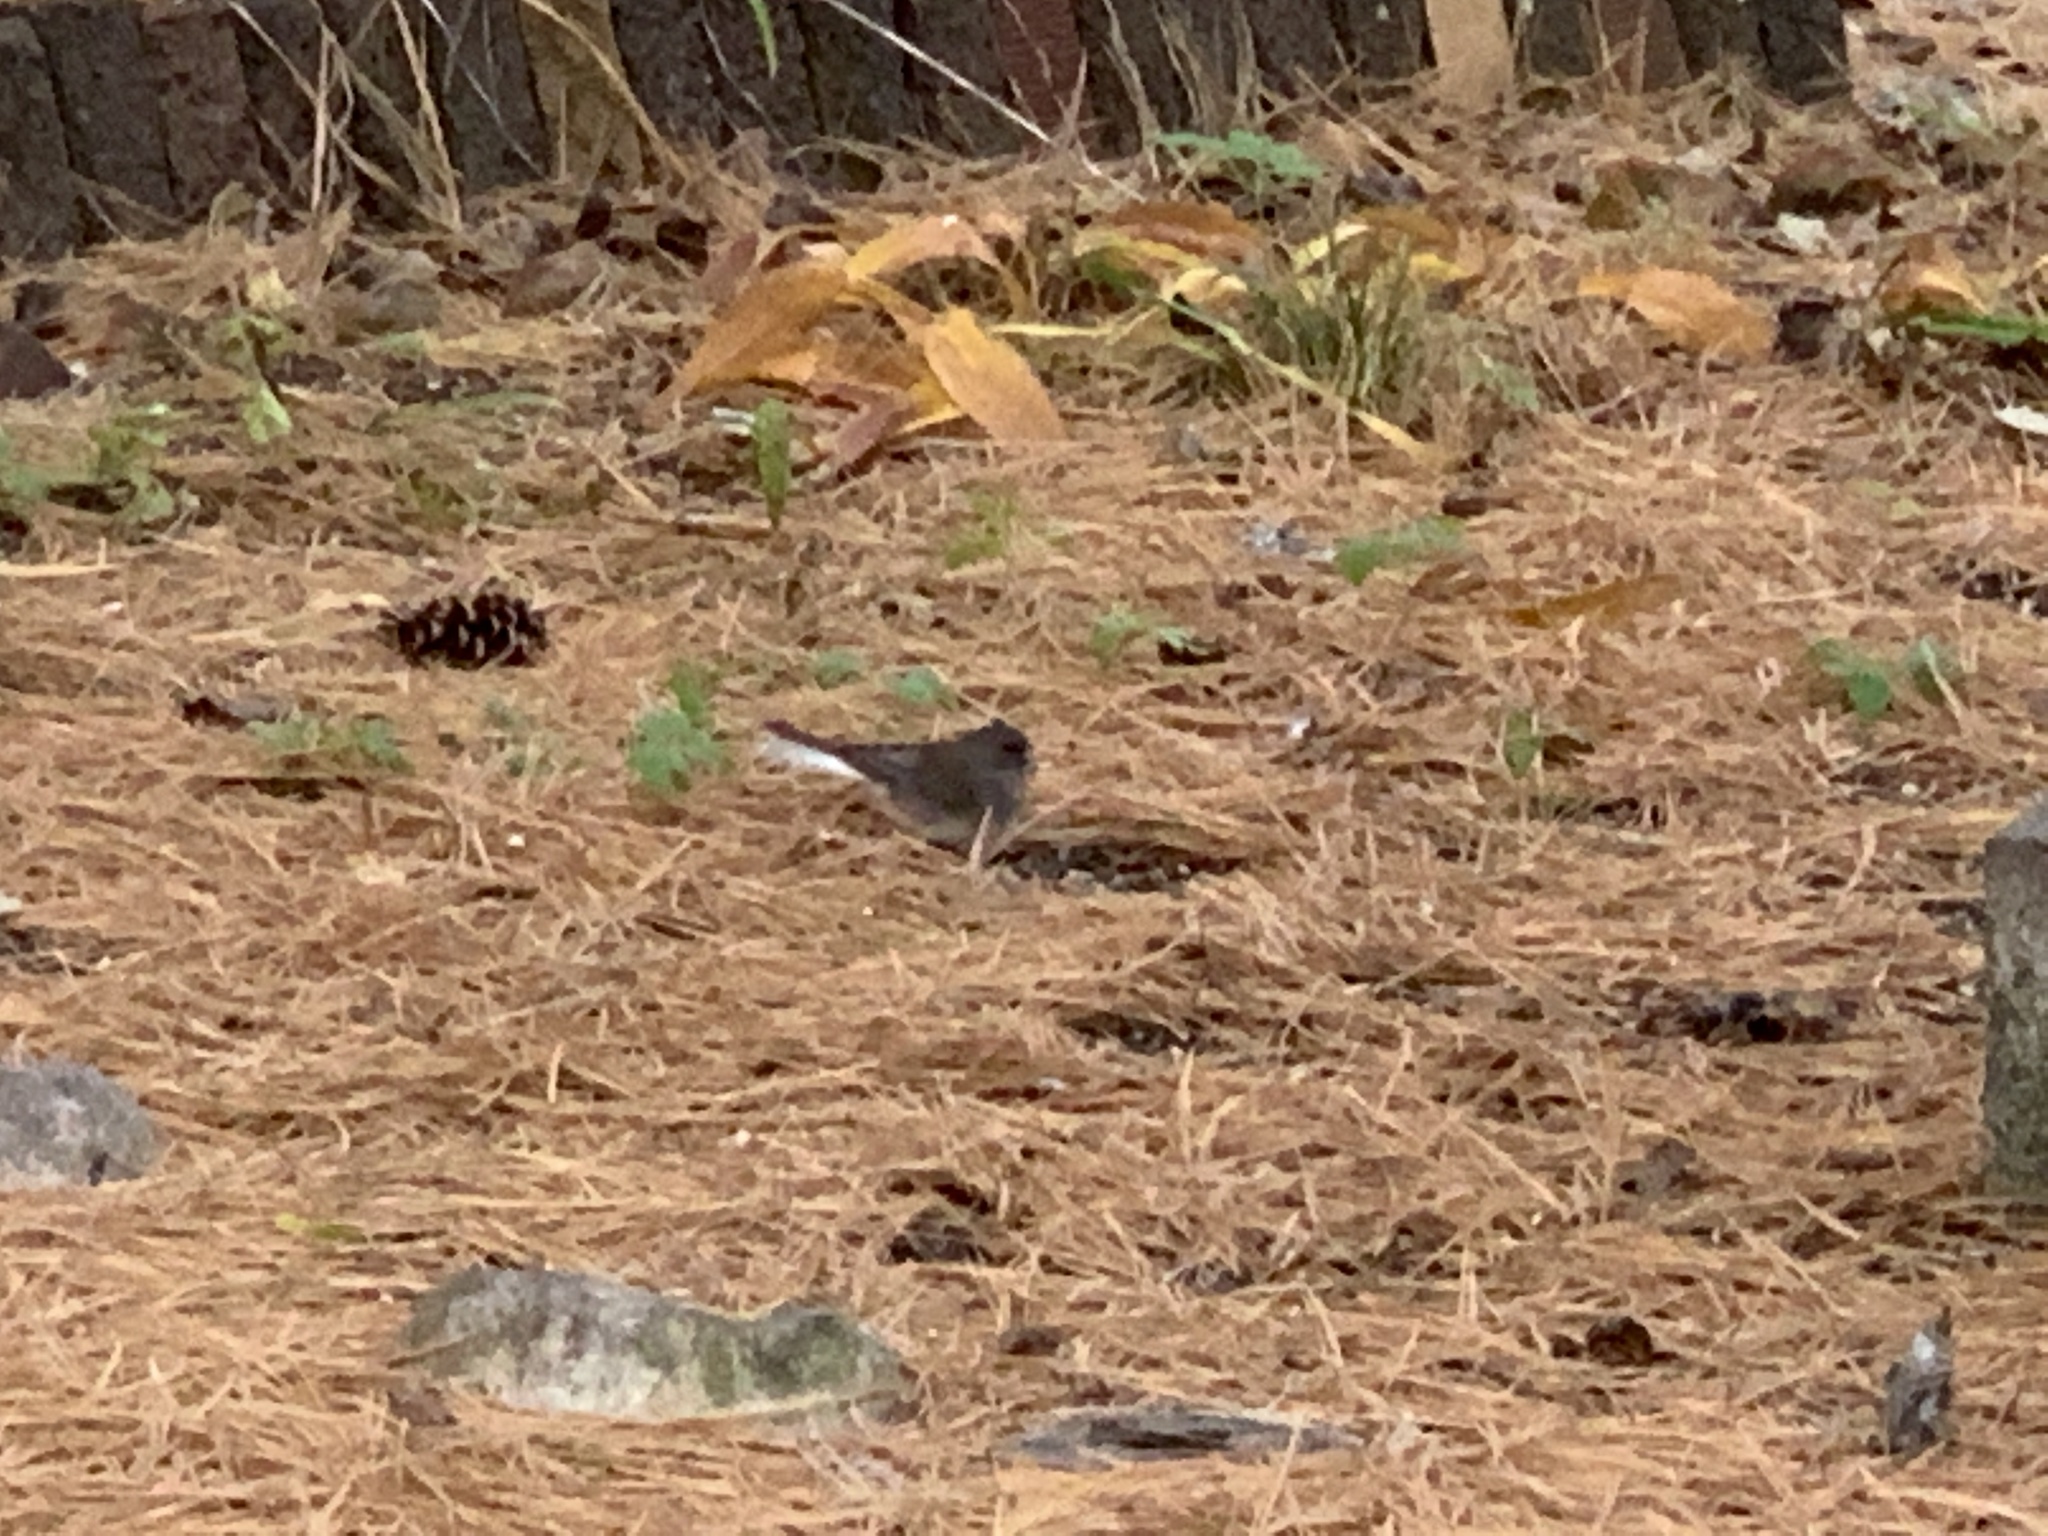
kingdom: Animalia
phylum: Chordata
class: Aves
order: Passeriformes
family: Passerellidae
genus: Junco
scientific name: Junco hyemalis
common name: Dark-eyed junco
